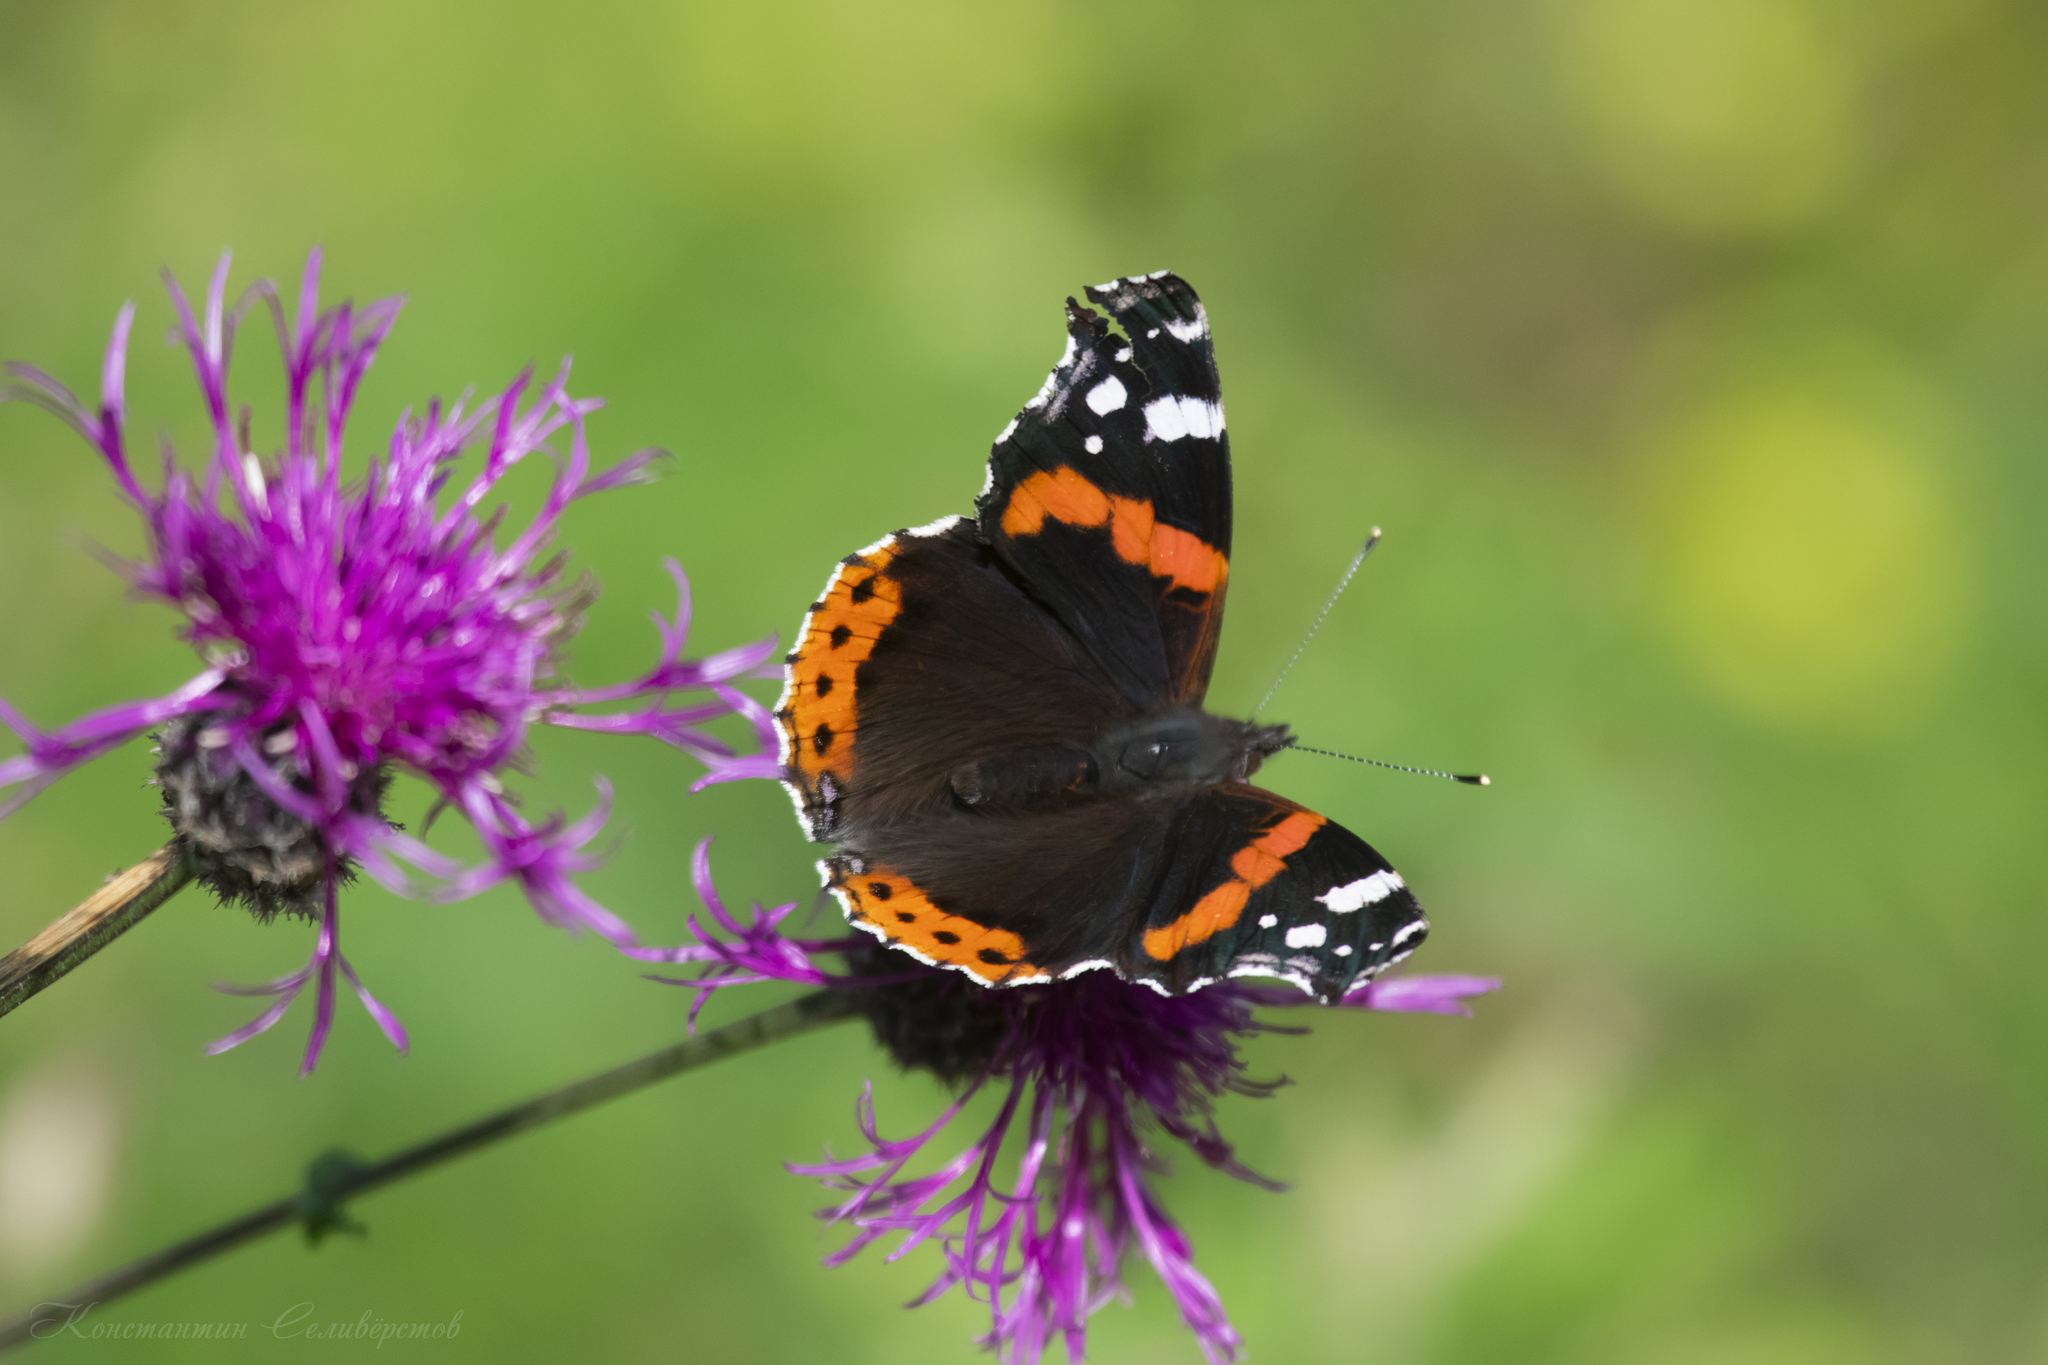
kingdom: Animalia
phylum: Arthropoda
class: Insecta
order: Lepidoptera
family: Nymphalidae
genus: Vanessa
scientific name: Vanessa atalanta
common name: Red admiral
